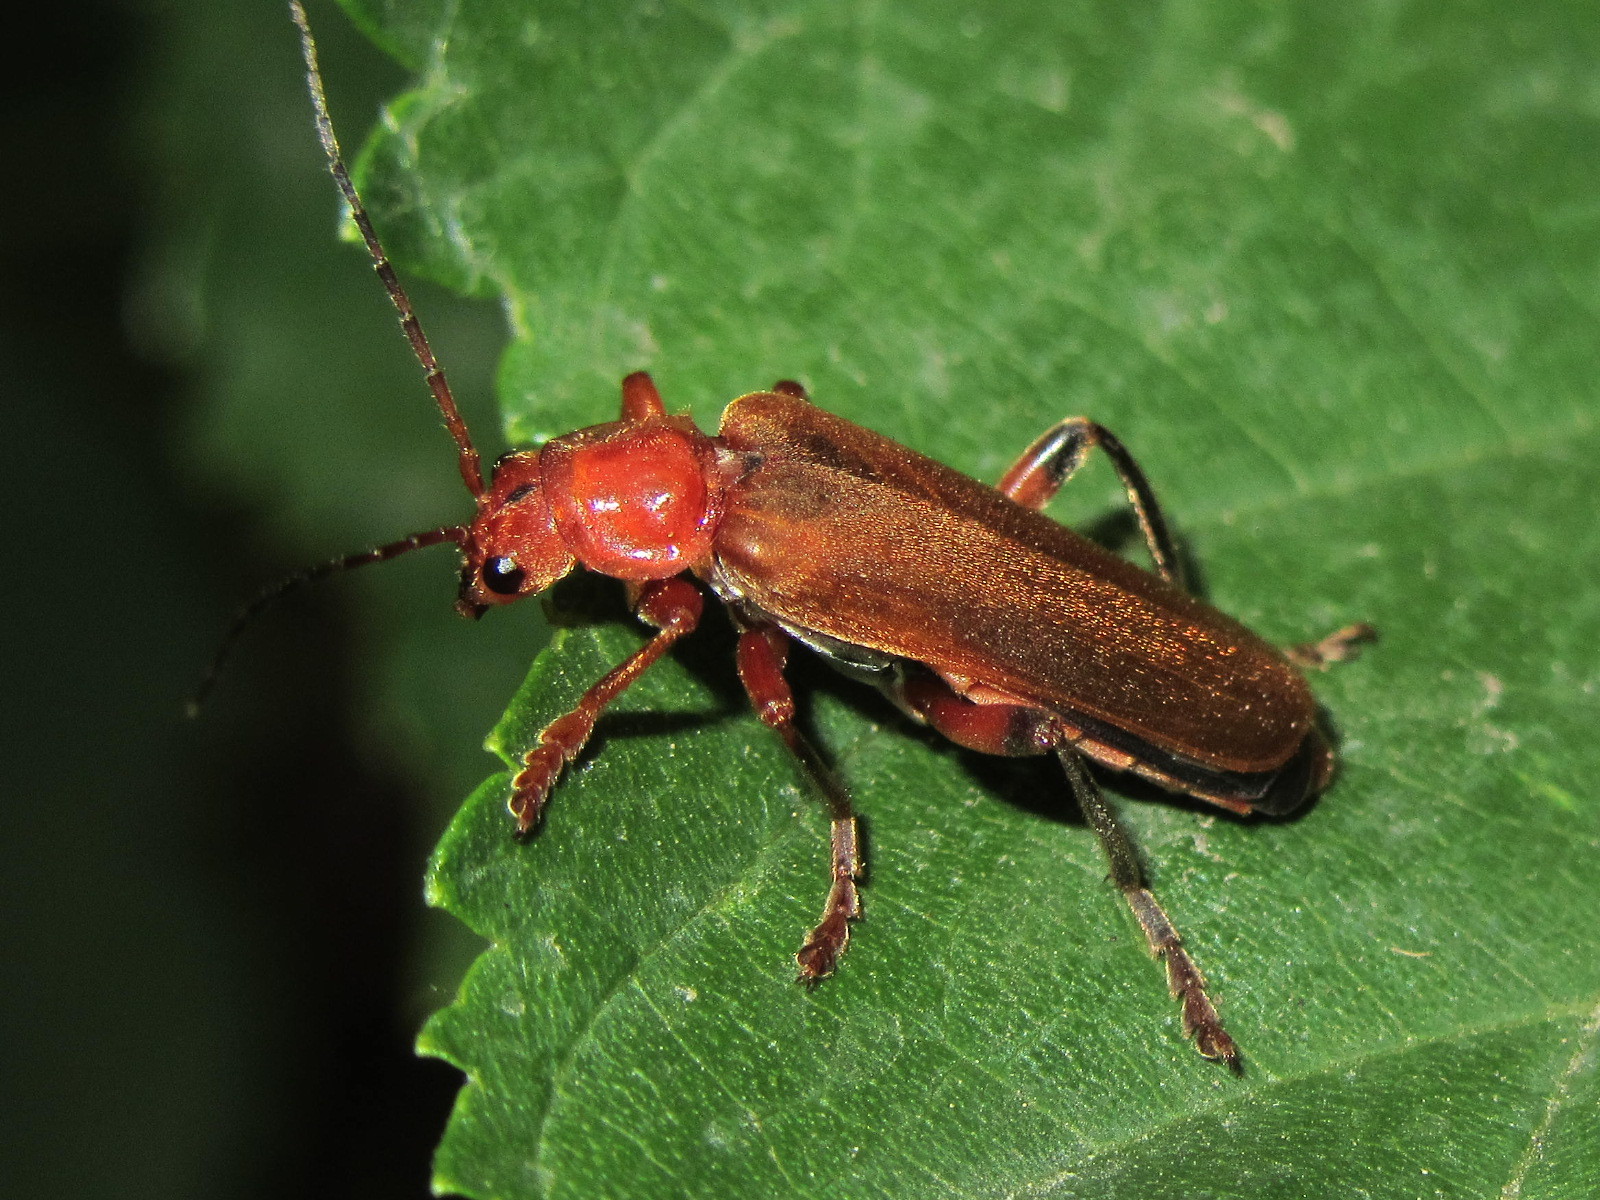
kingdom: Animalia
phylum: Arthropoda
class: Insecta
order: Coleoptera
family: Cantharidae
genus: Cantharis
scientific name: Cantharis livida
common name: Livid soldier beetle
